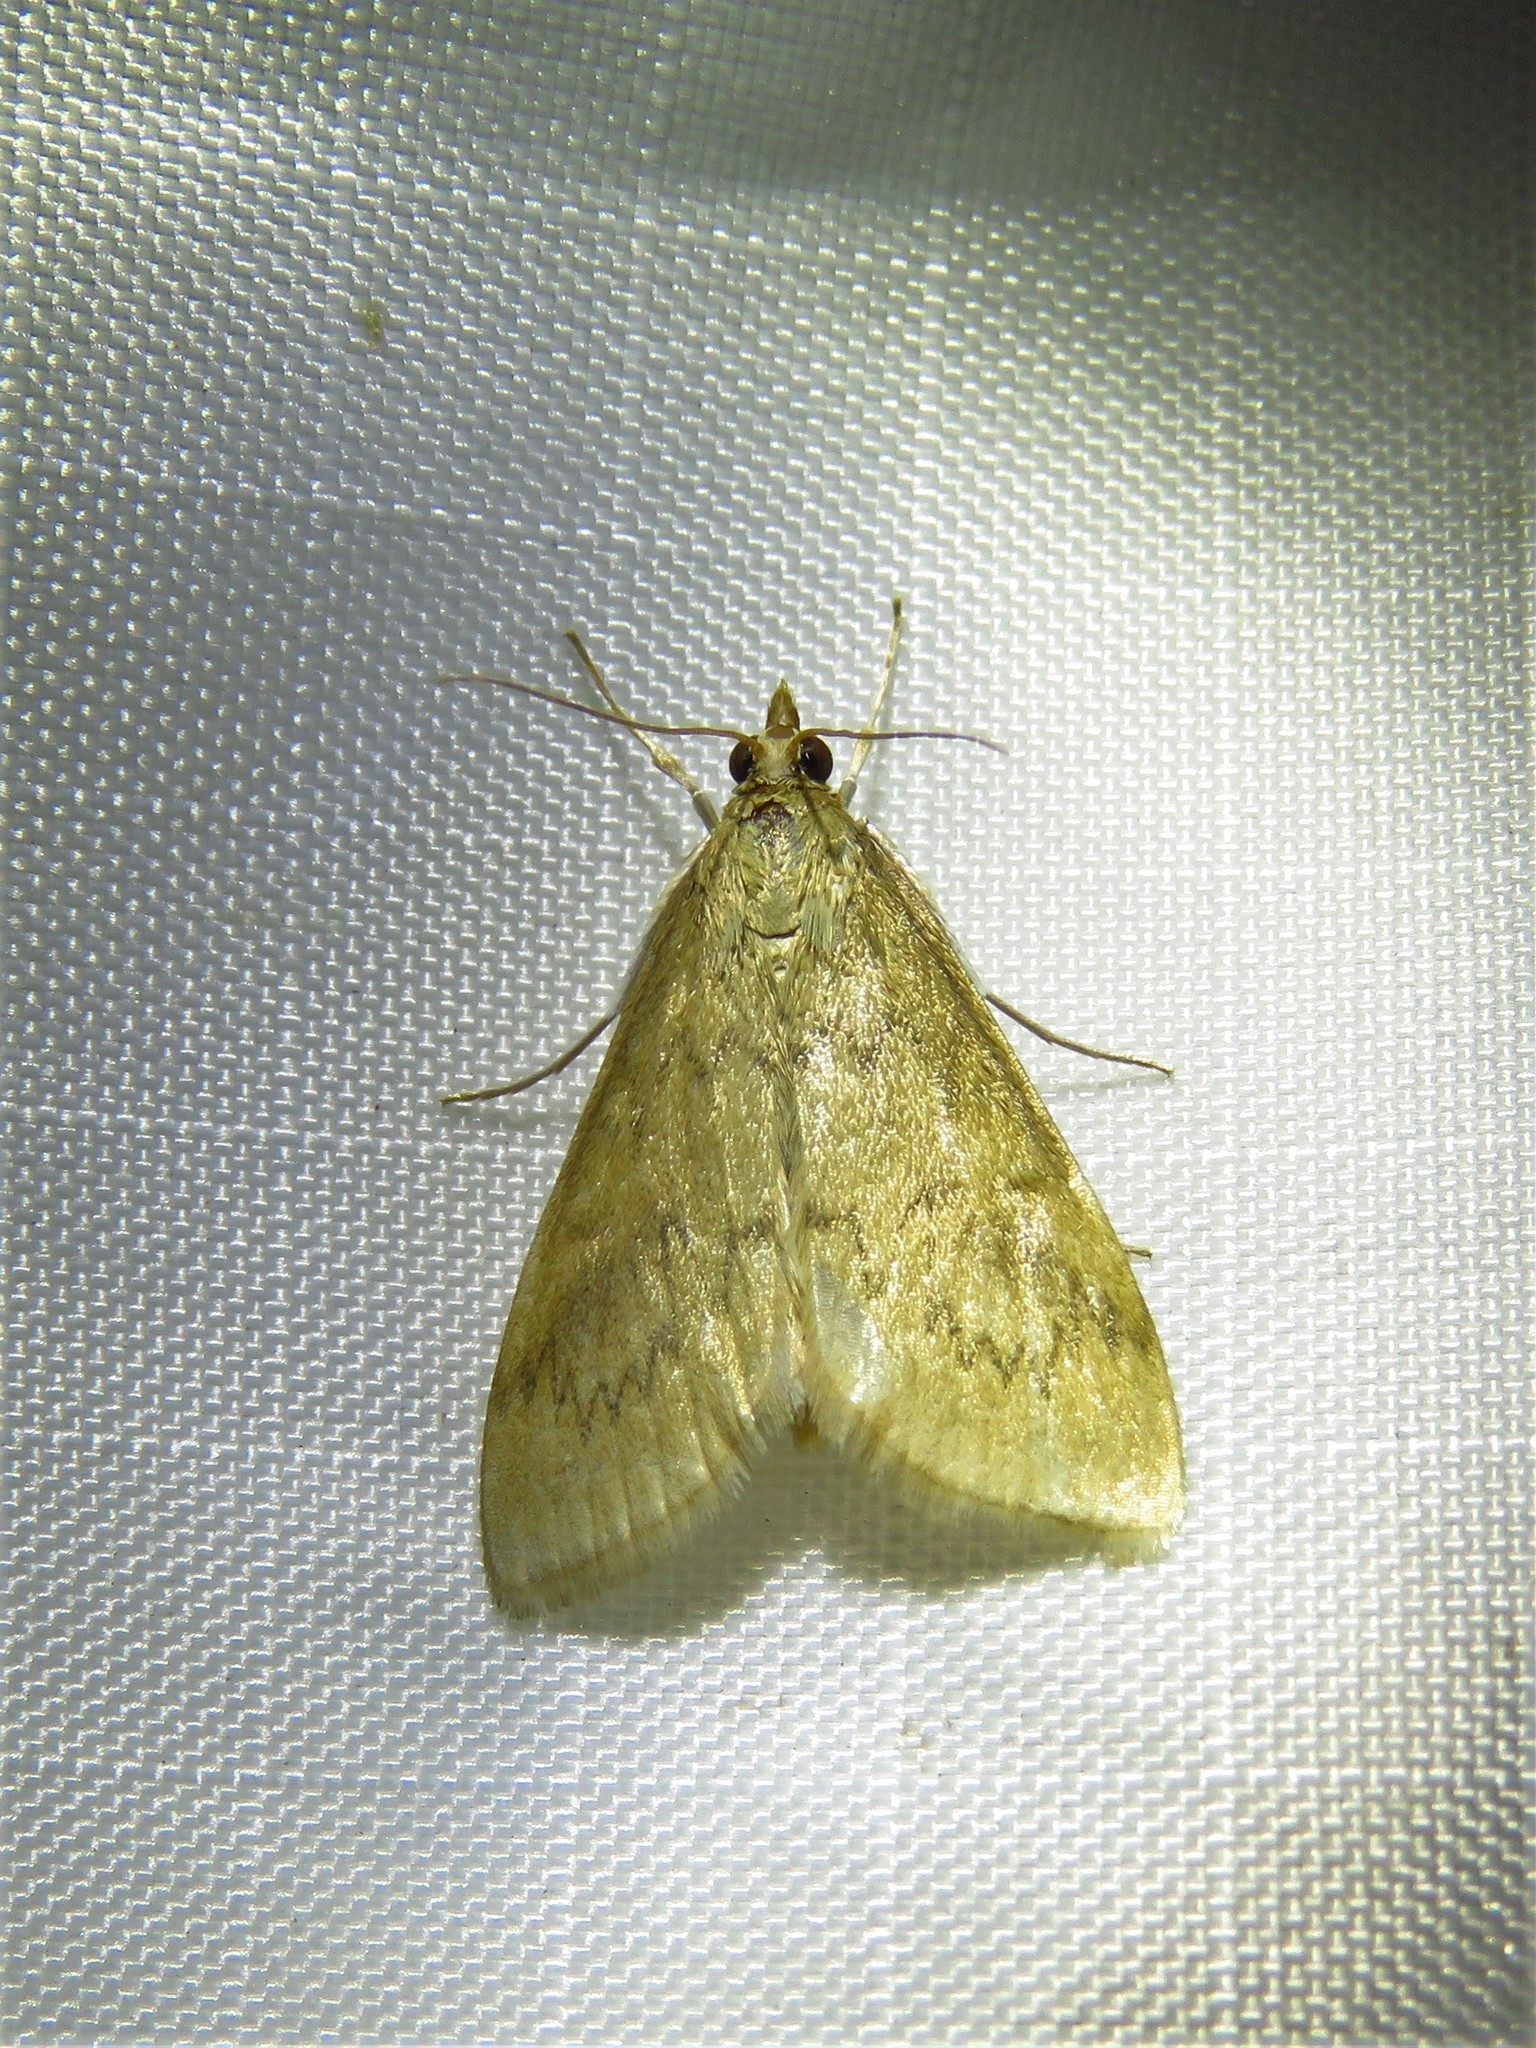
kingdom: Animalia
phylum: Arthropoda
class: Insecta
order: Lepidoptera
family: Crambidae
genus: Achyra
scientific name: Achyra rantalis
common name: Garden webworm
